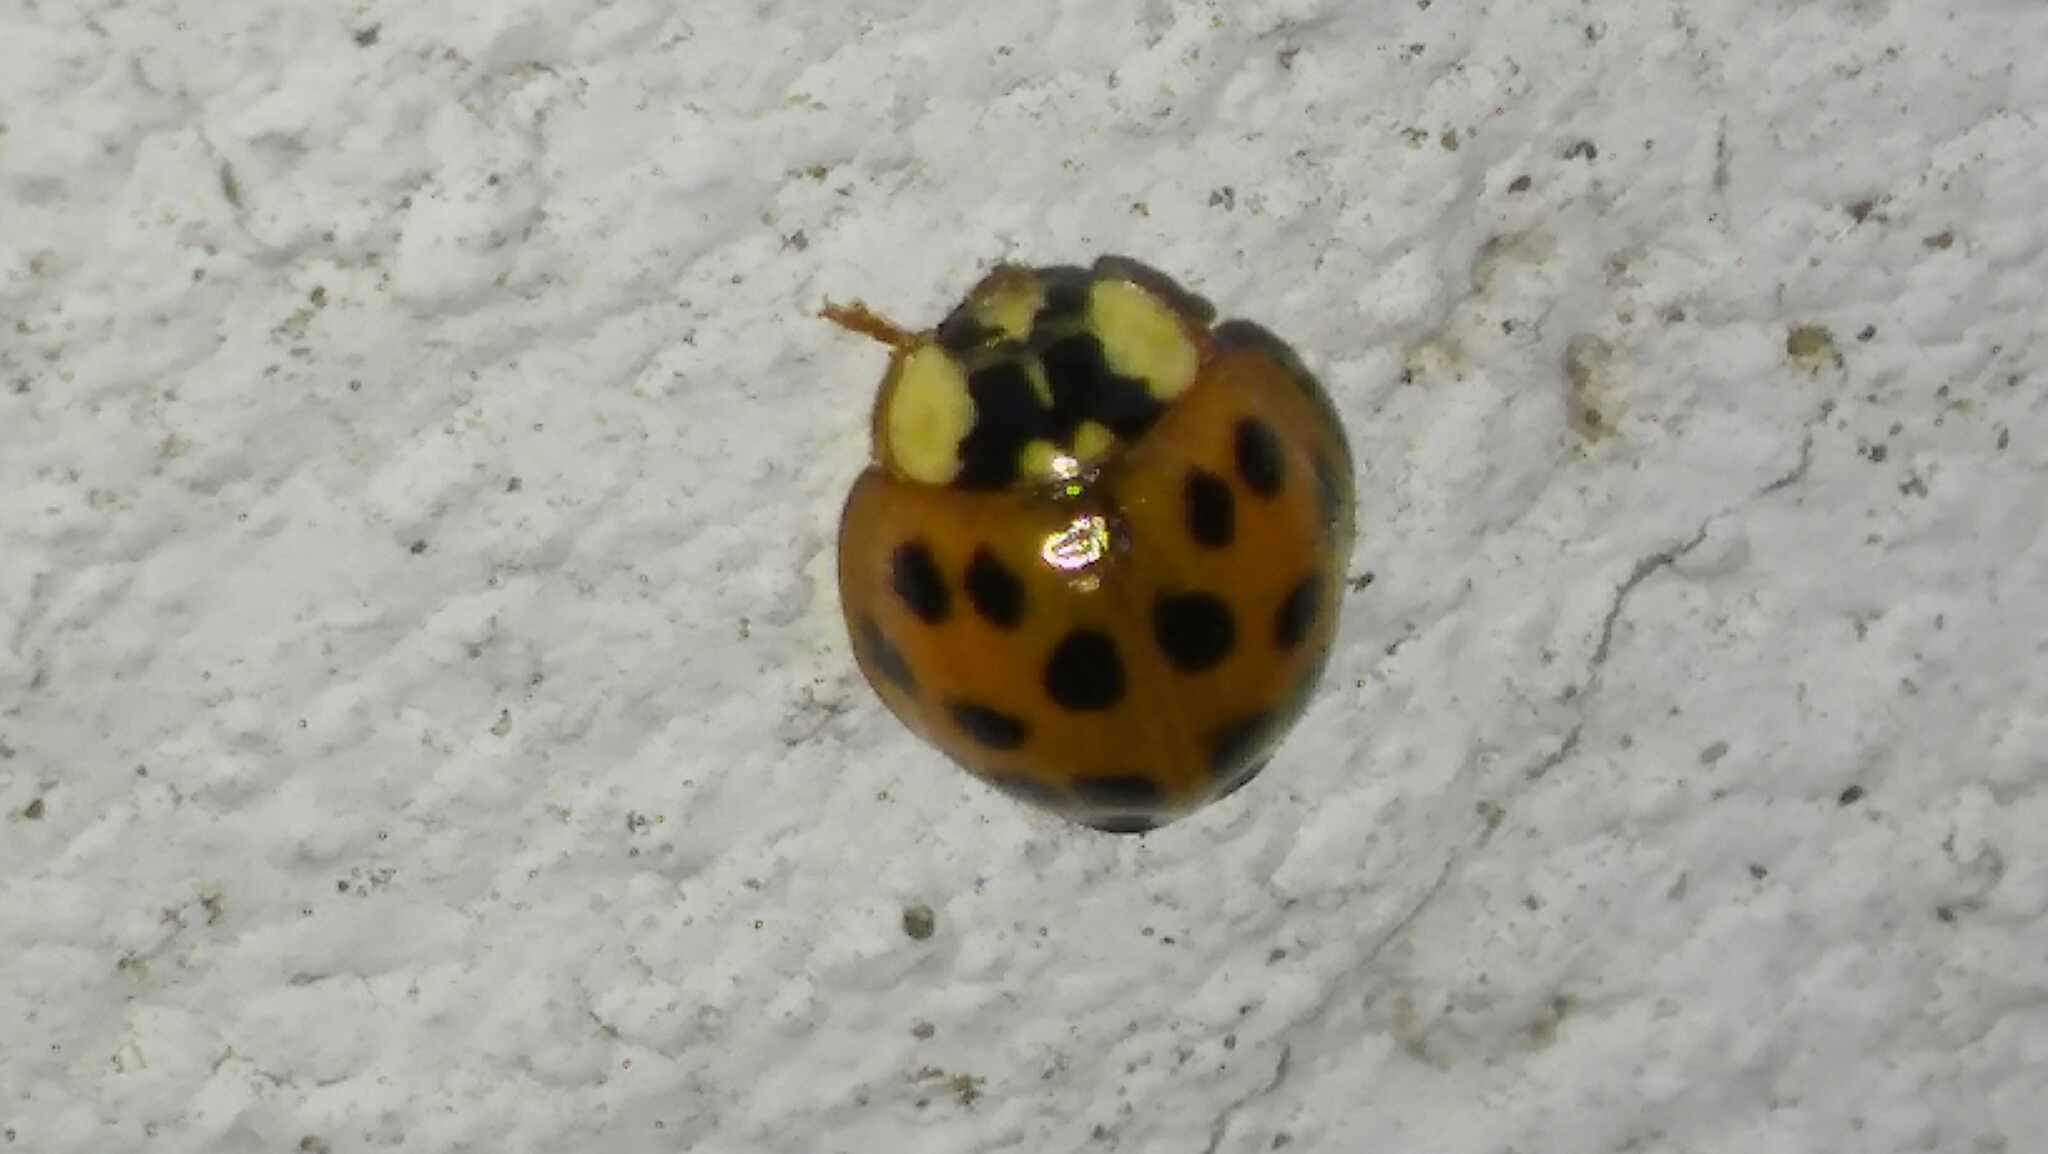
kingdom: Animalia
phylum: Arthropoda
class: Insecta
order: Coleoptera
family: Coccinellidae
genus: Harmonia
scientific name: Harmonia axyridis
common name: Harlequin ladybird
